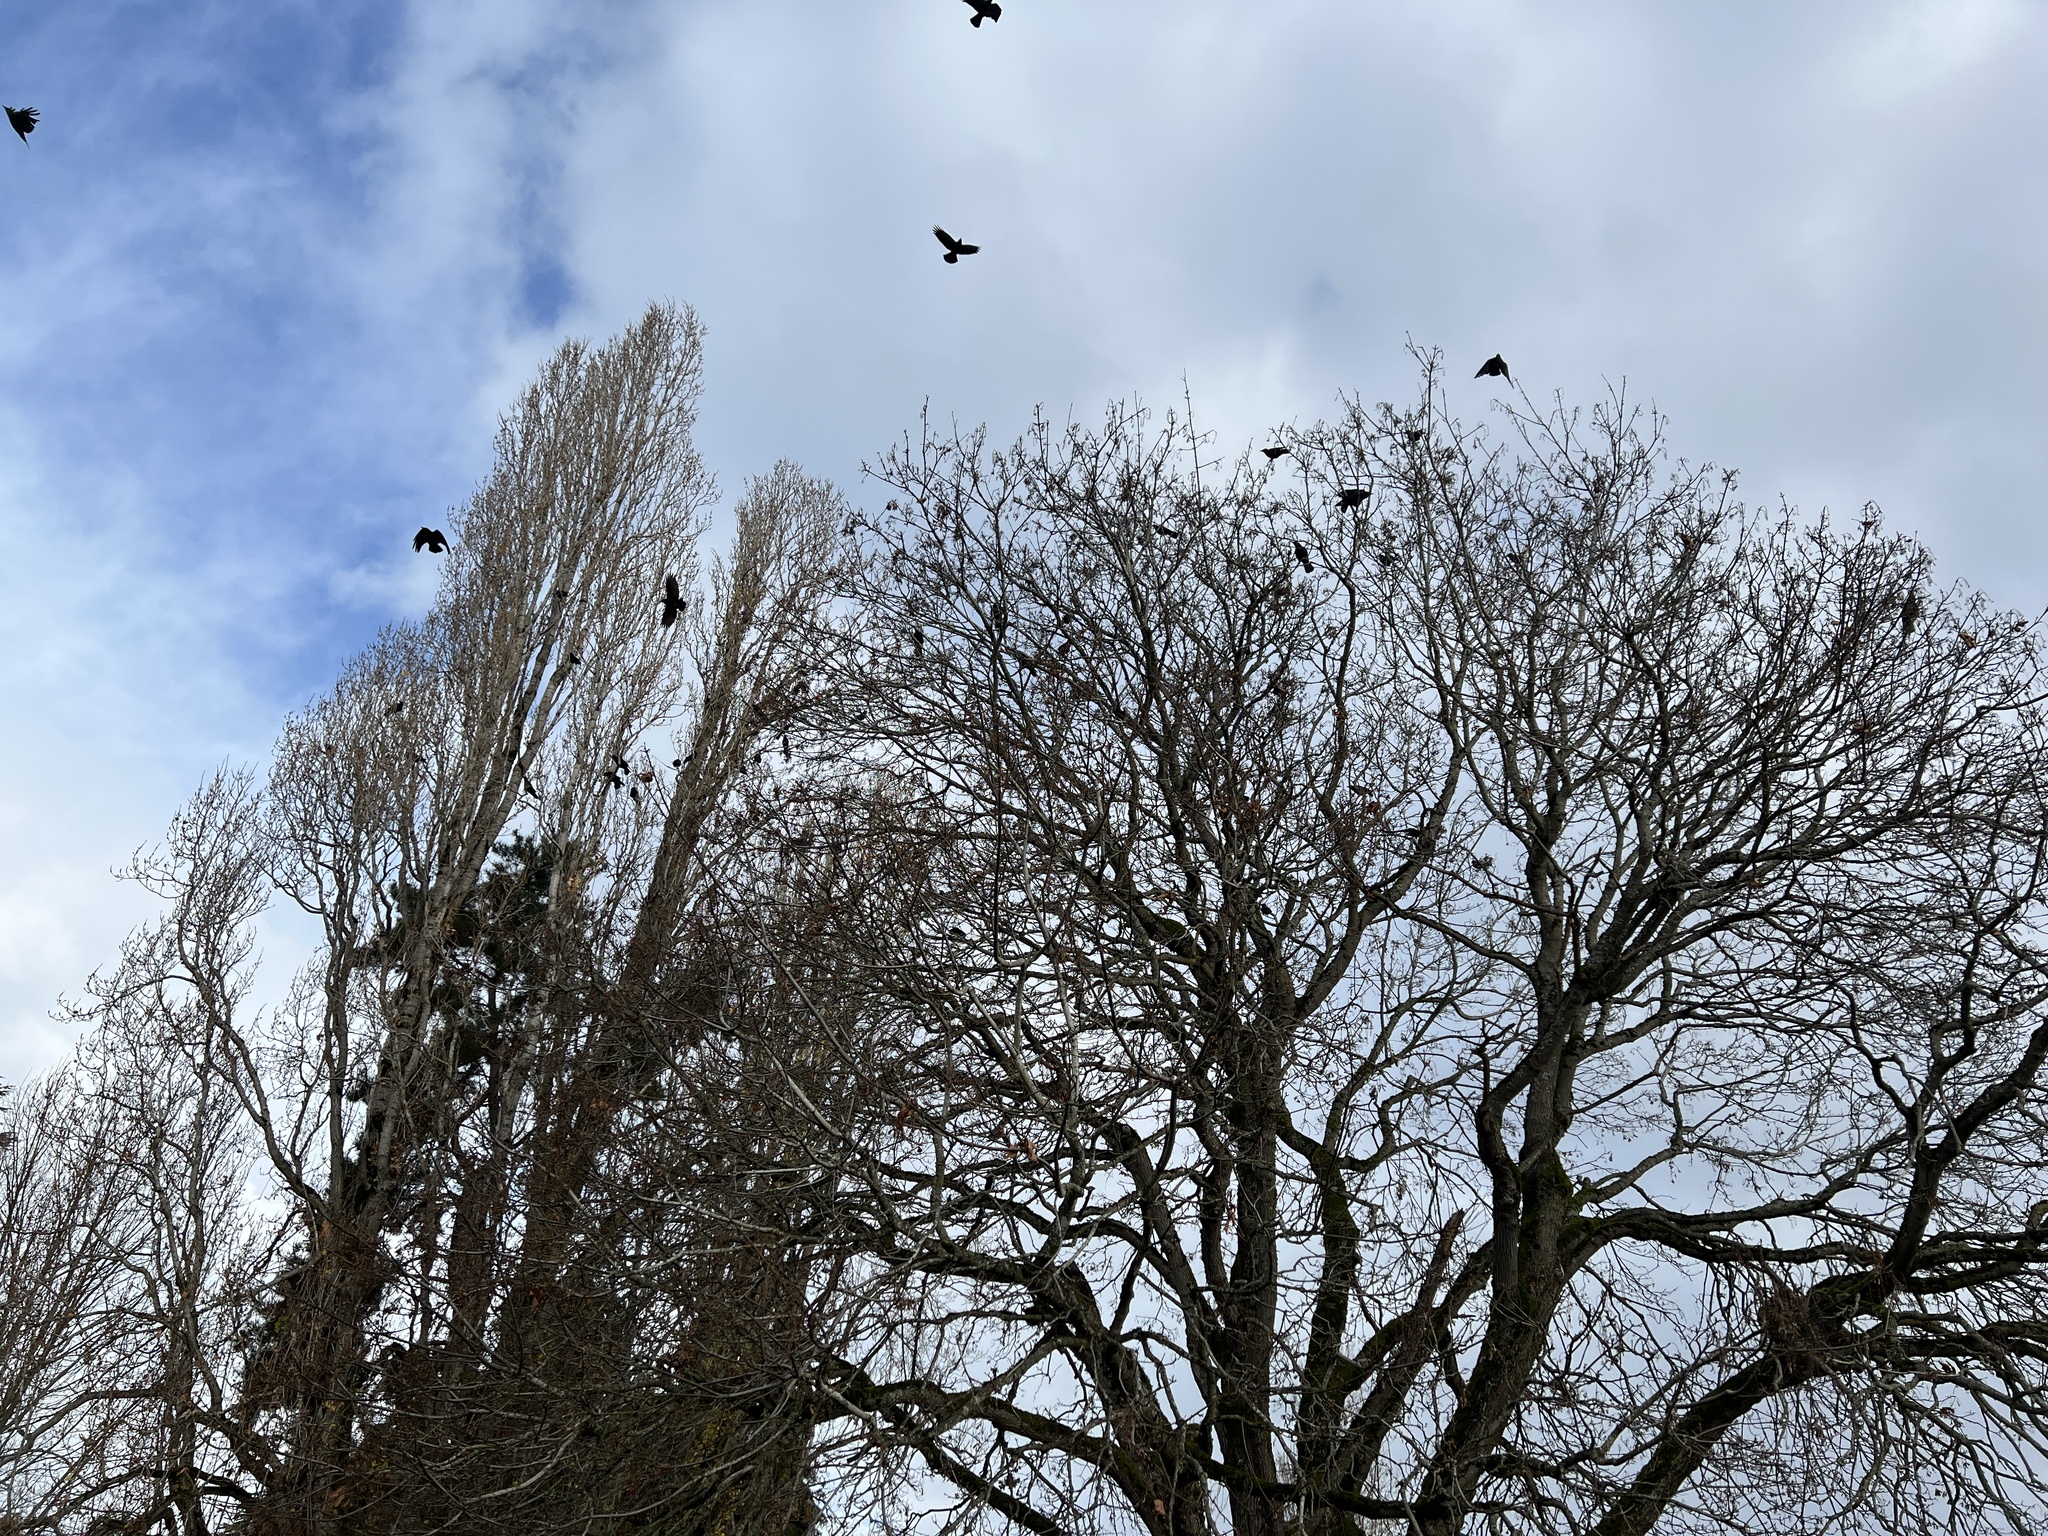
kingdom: Animalia
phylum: Chordata
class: Aves
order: Passeriformes
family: Corvidae
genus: Corvus
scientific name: Corvus brachyrhynchos
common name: American crow
